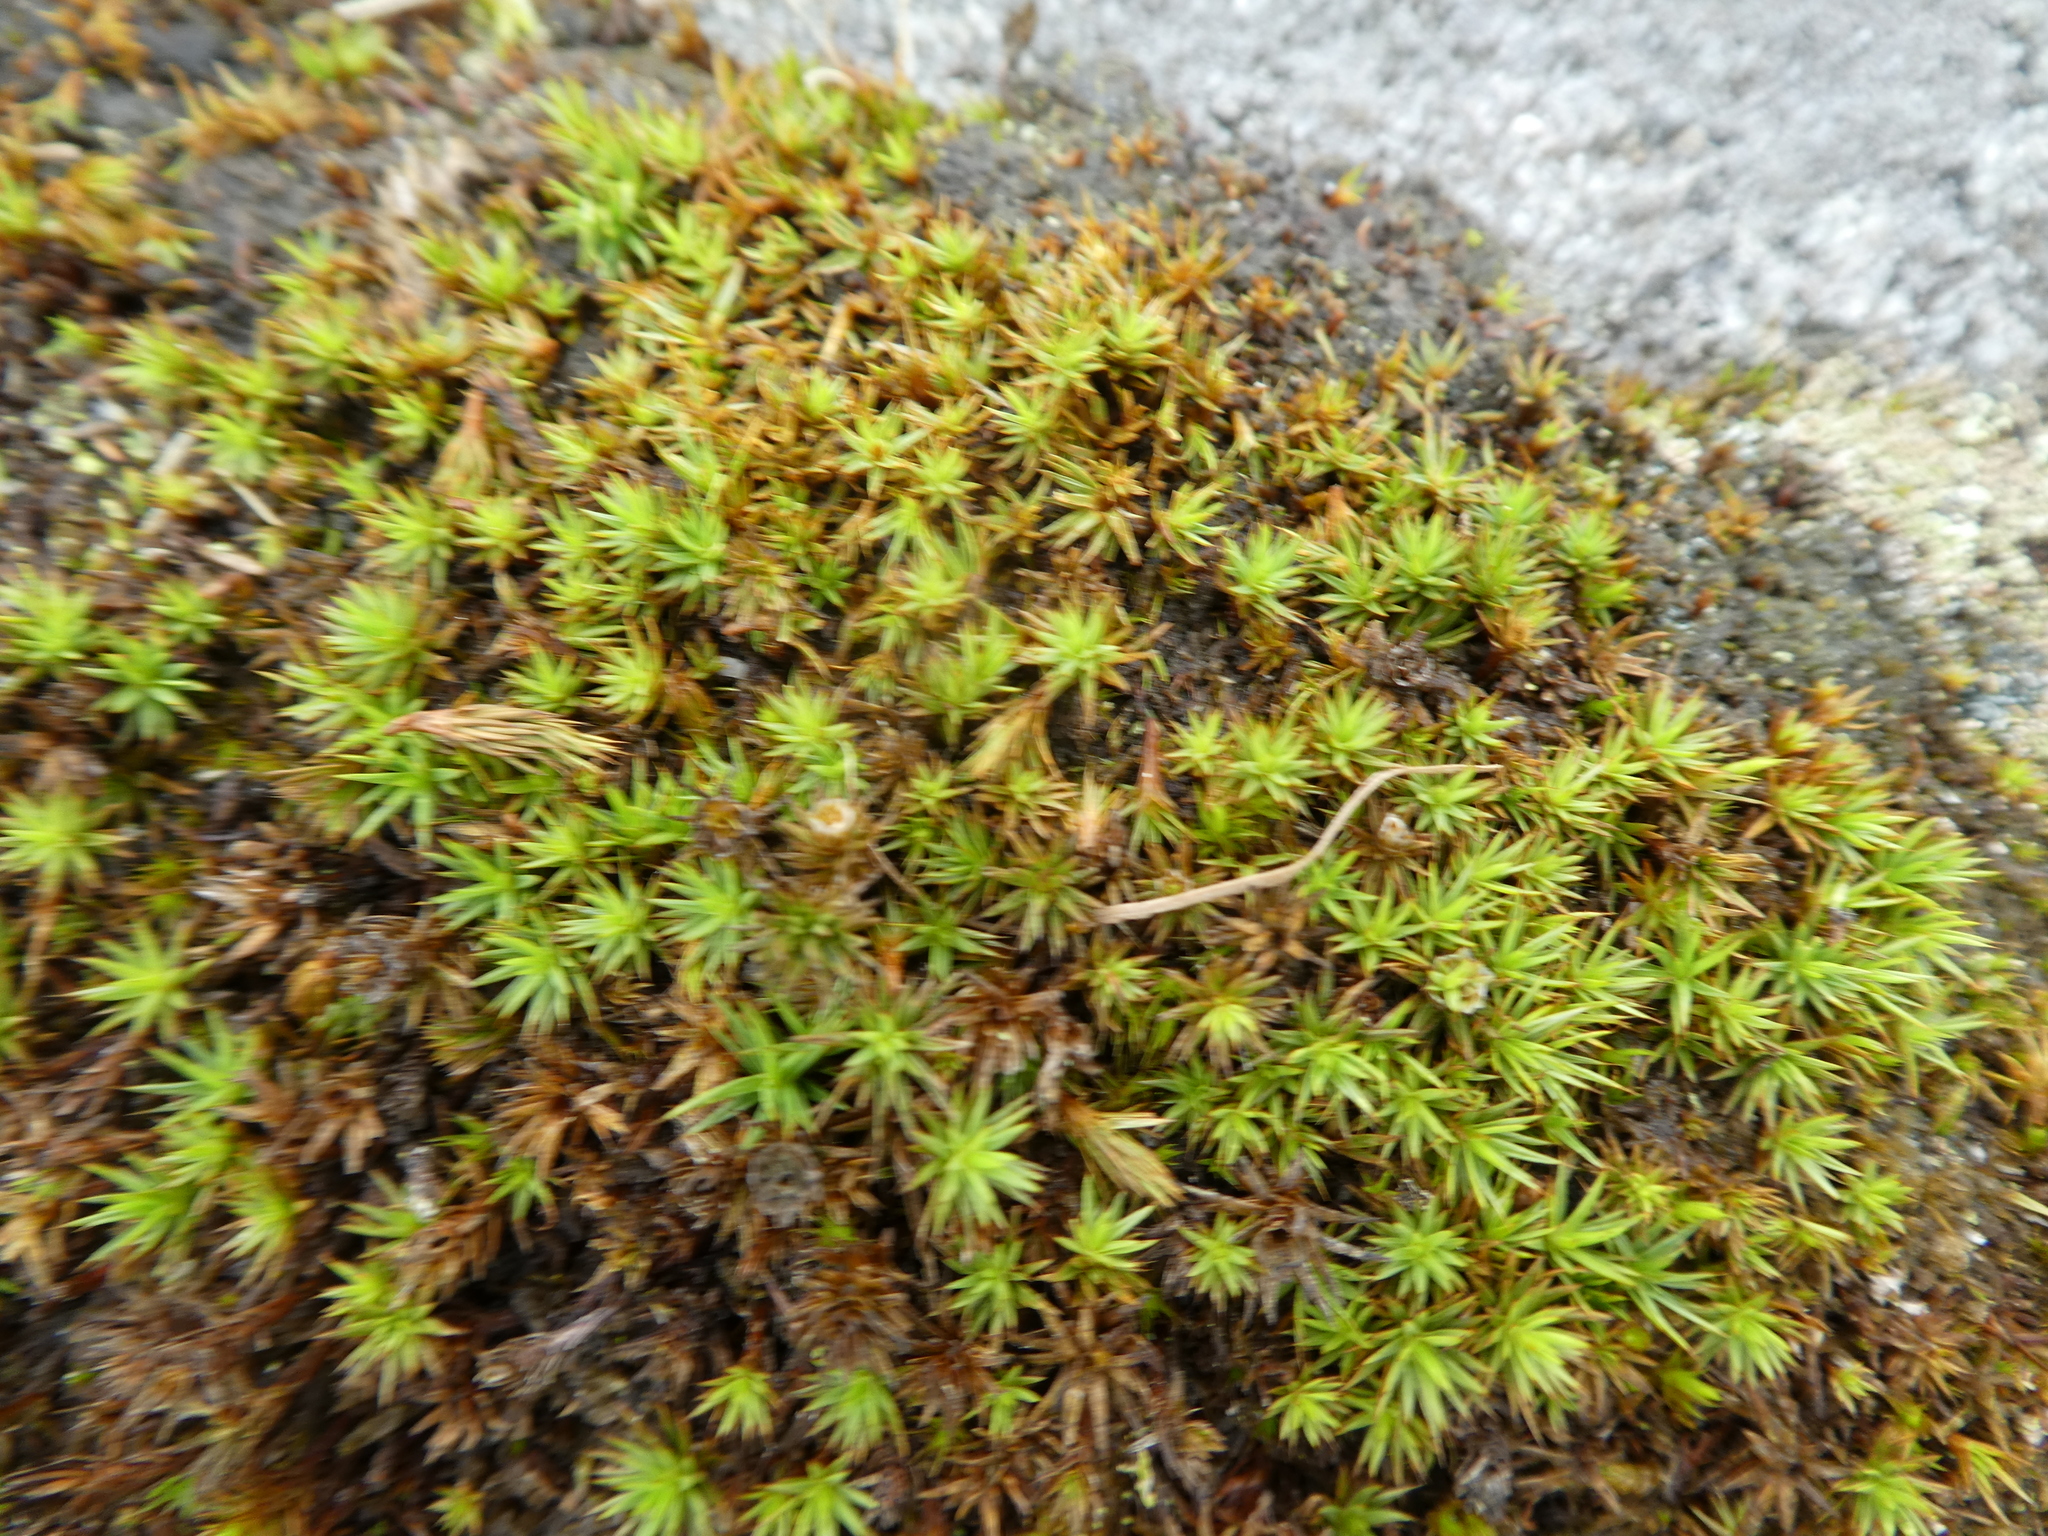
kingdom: Plantae
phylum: Bryophyta
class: Polytrichopsida
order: Polytrichales
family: Polytrichaceae
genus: Polytrichum
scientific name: Polytrichum juniperinum
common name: Juniper haircap moss
